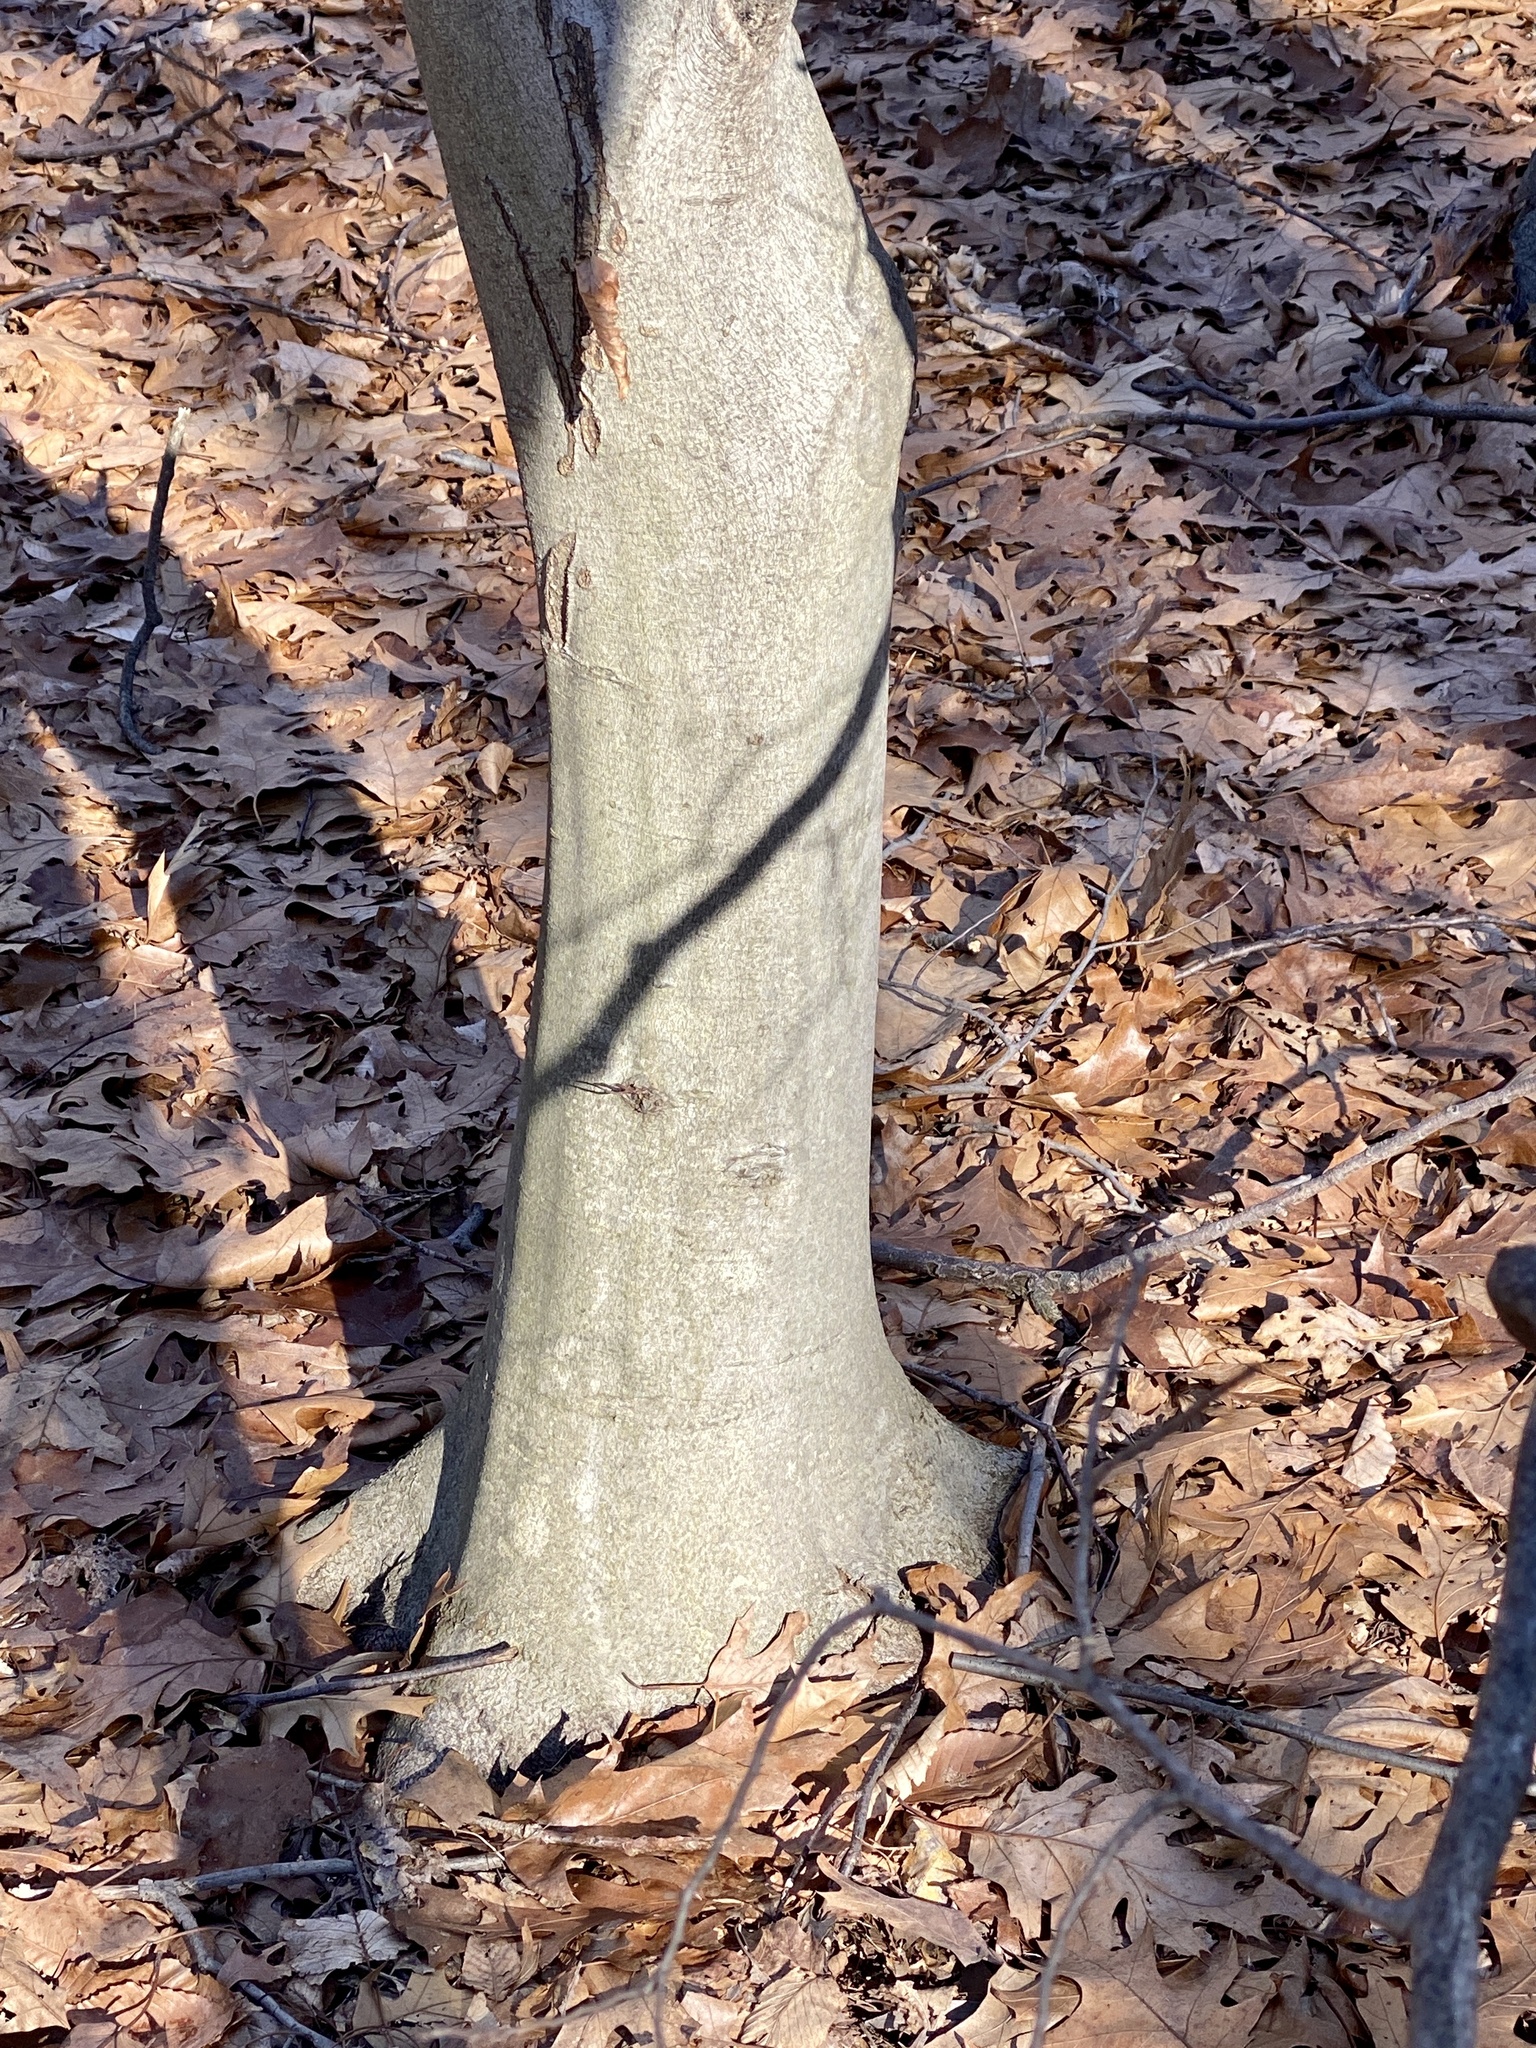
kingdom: Plantae
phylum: Tracheophyta
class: Magnoliopsida
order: Fagales
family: Fagaceae
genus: Fagus
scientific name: Fagus grandifolia
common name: American beech
